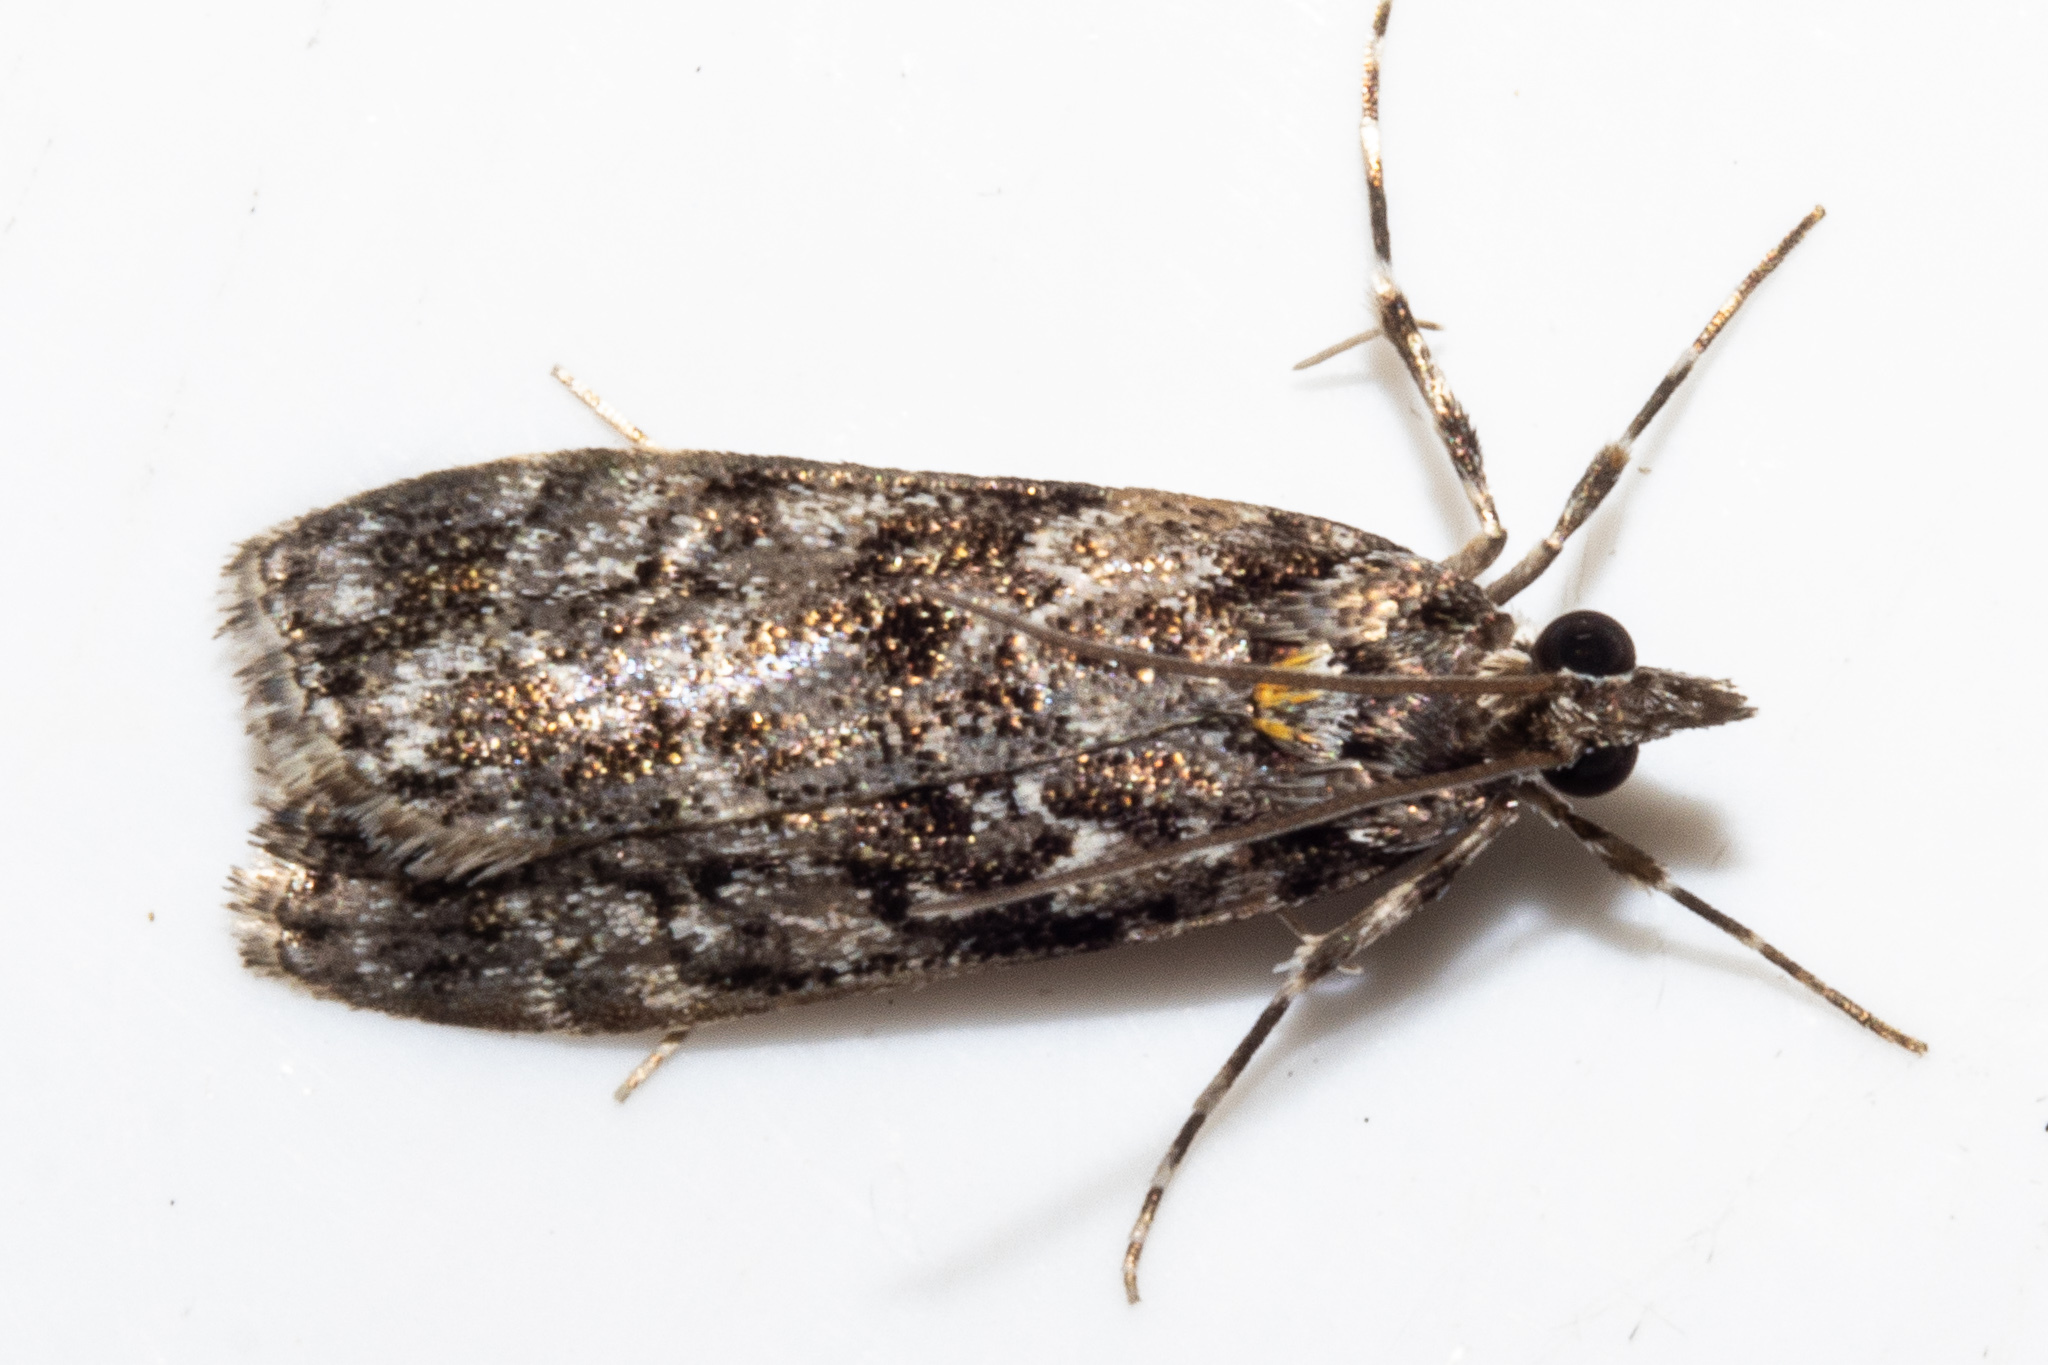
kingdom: Animalia
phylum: Arthropoda
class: Insecta
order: Lepidoptera
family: Crambidae
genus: Eudonia
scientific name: Eudonia
